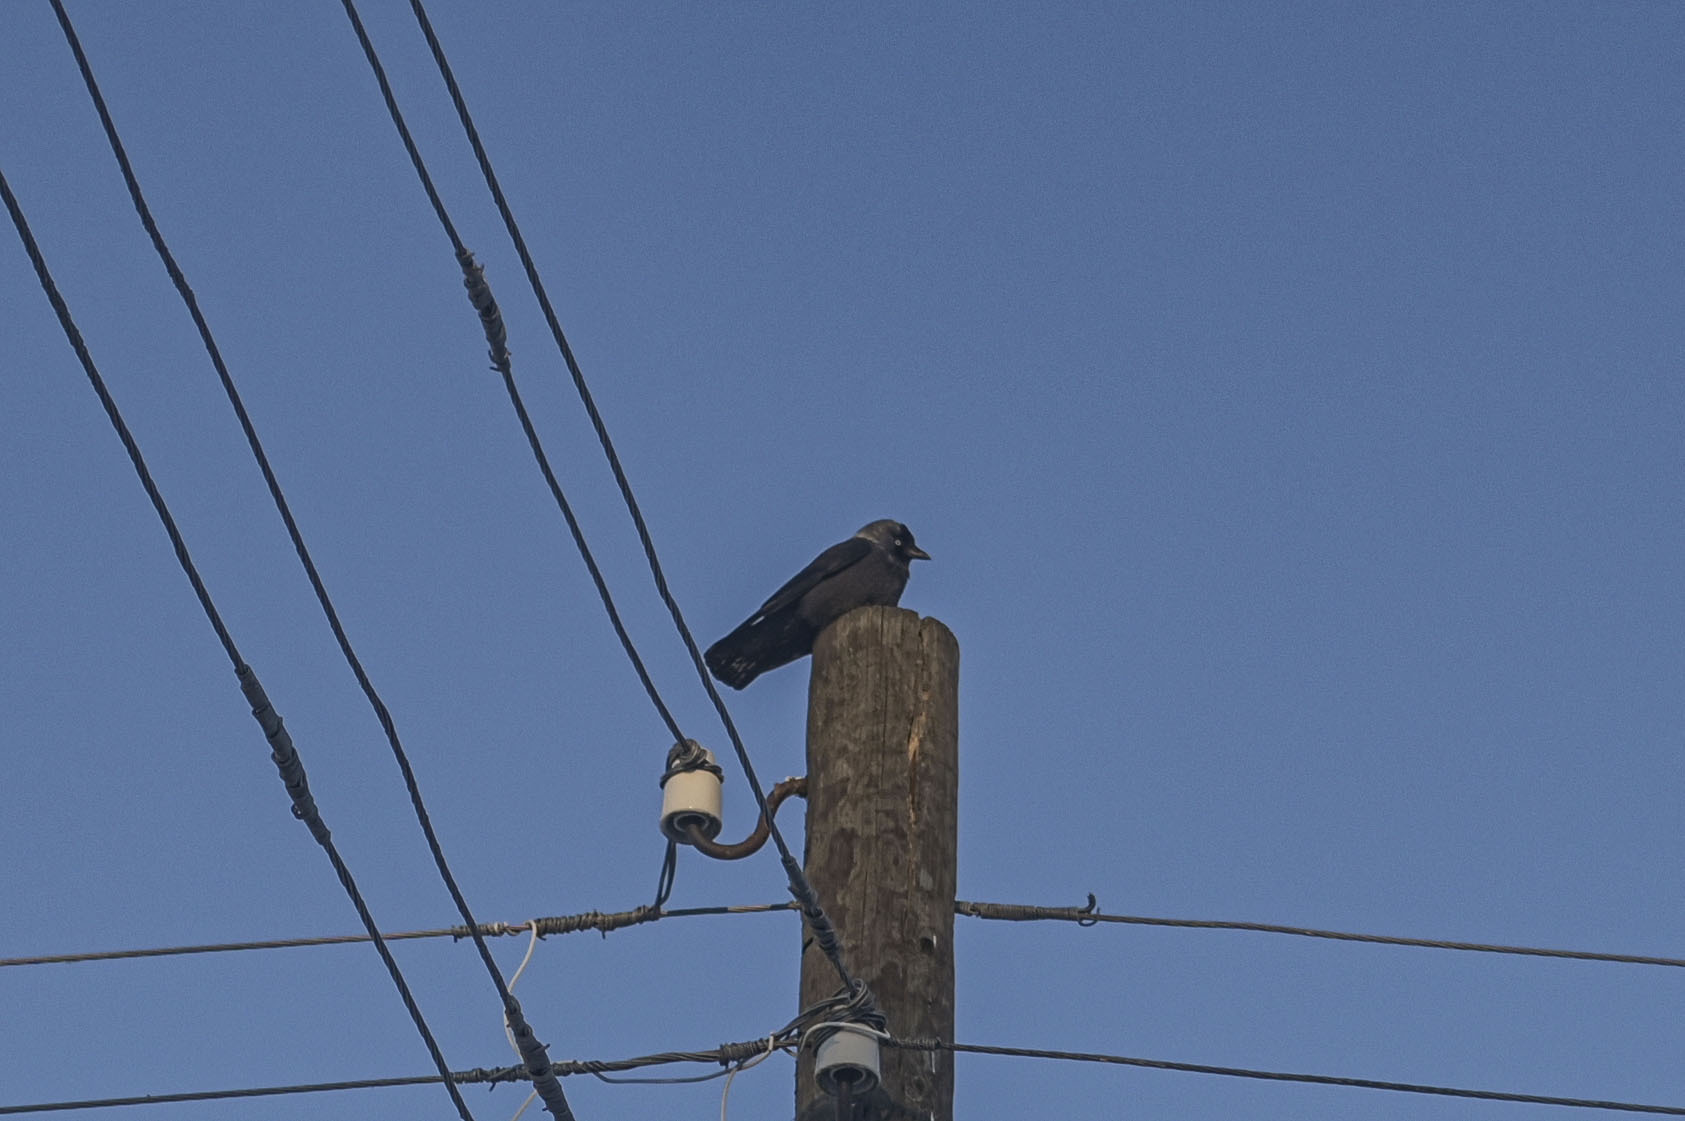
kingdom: Animalia
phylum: Chordata
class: Aves
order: Passeriformes
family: Corvidae
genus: Coloeus
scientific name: Coloeus monedula
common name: Western jackdaw
